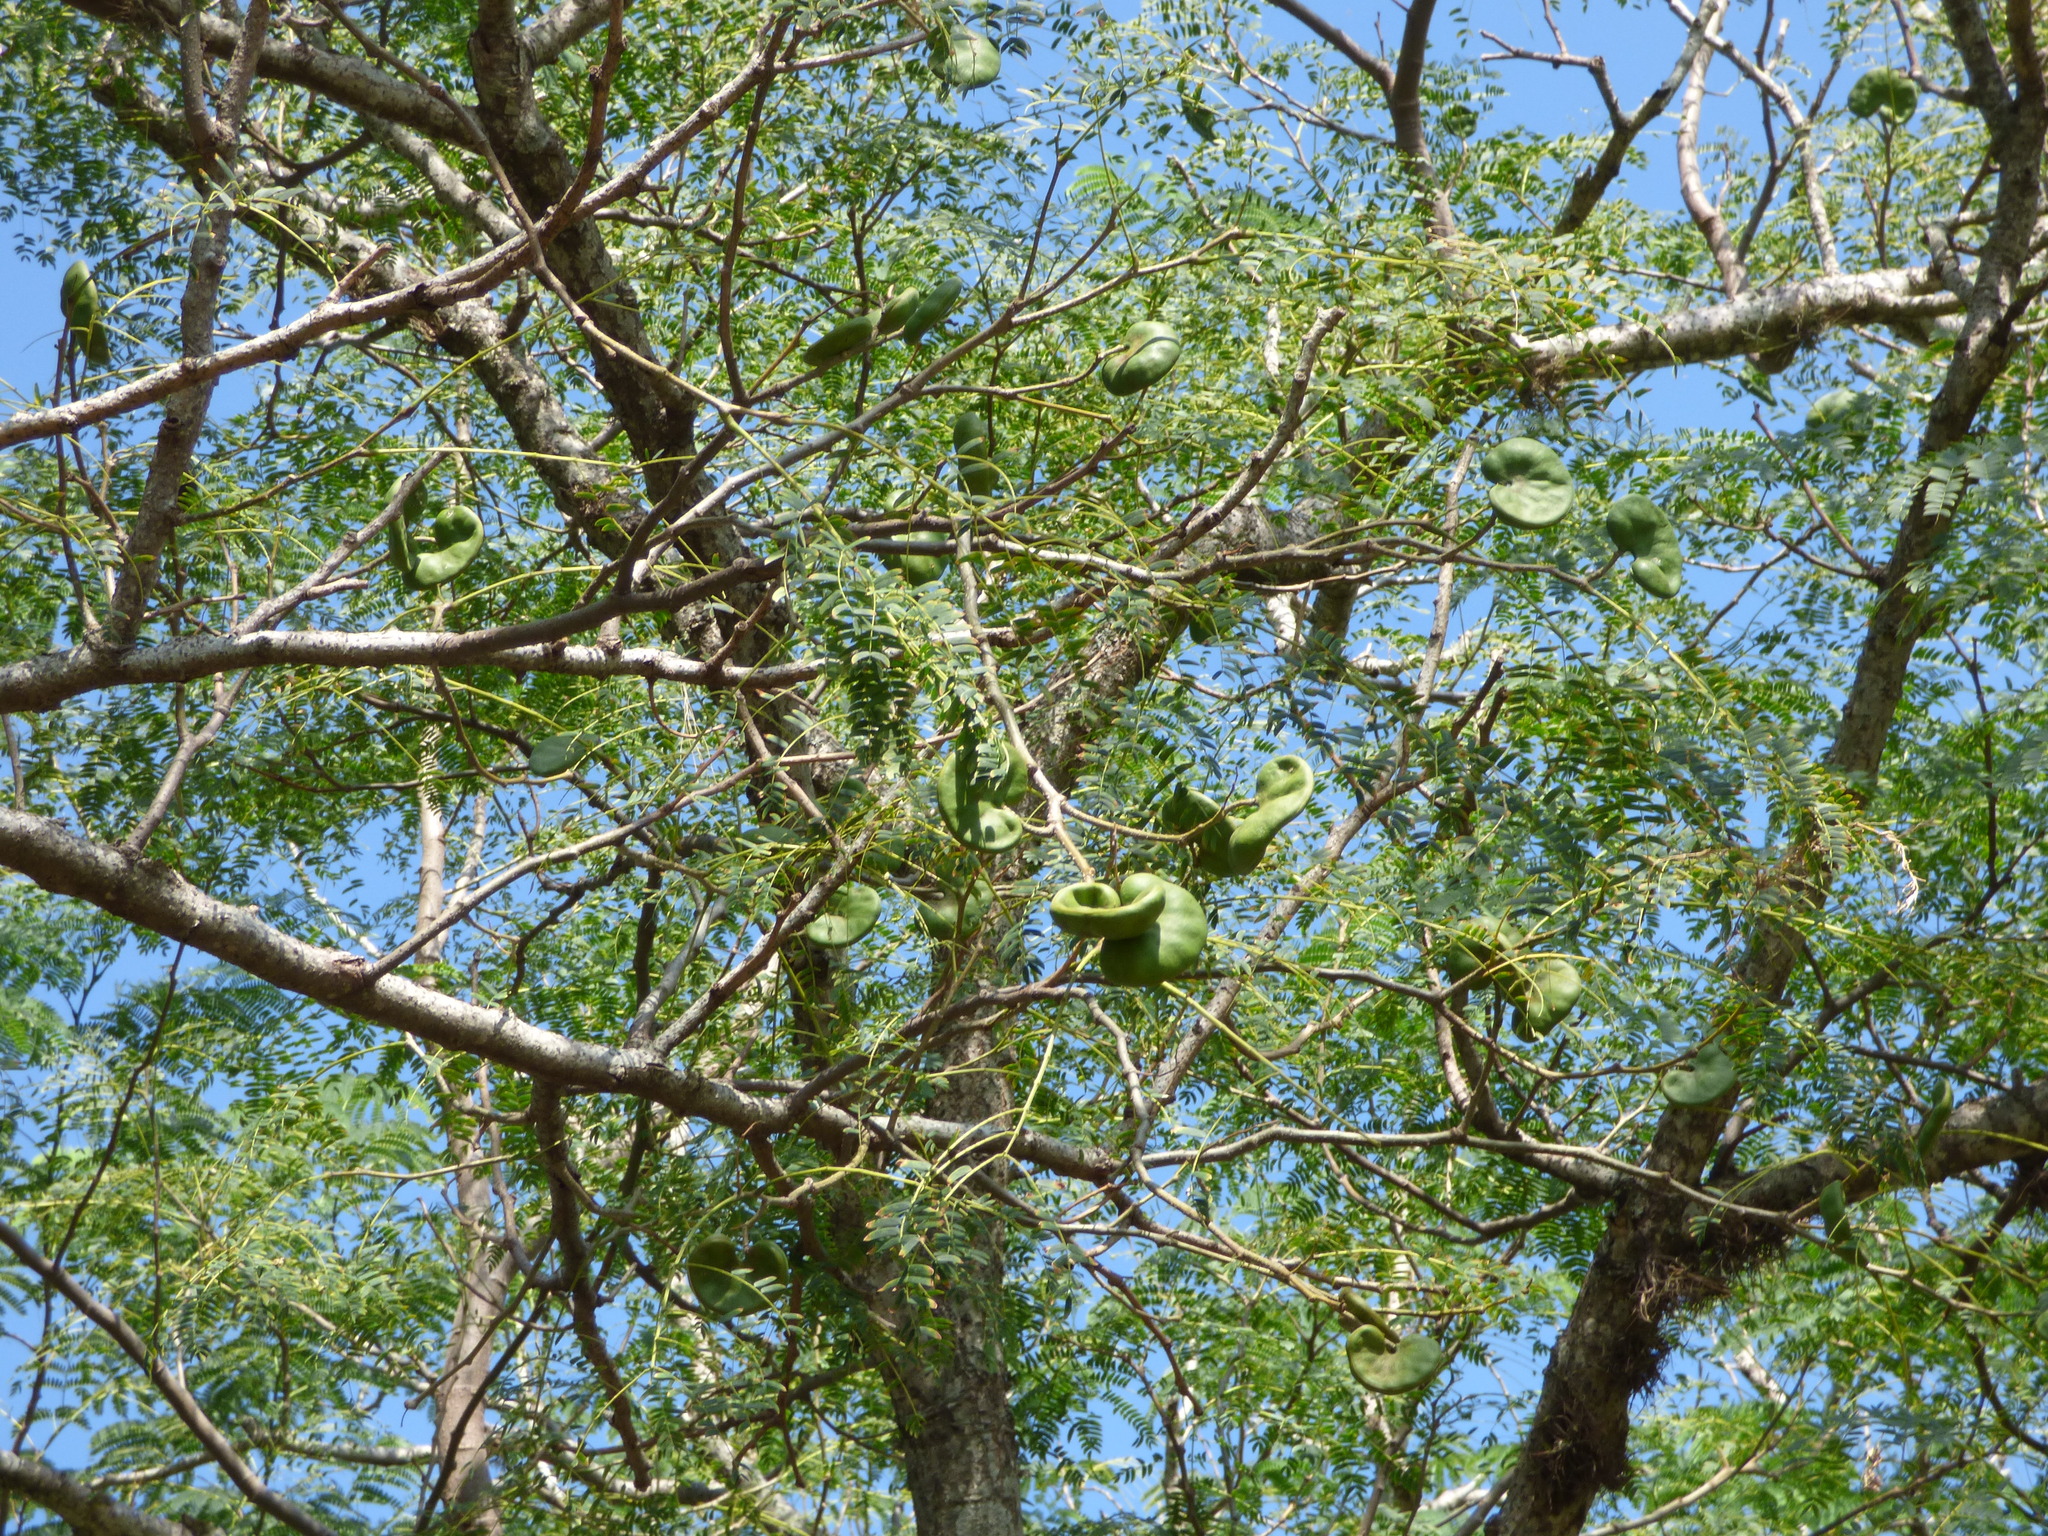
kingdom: Plantae
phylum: Tracheophyta
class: Magnoliopsida
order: Fabales
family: Fabaceae
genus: Enterolobium
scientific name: Enterolobium contortisiliquum
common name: Pacara earpod tree
